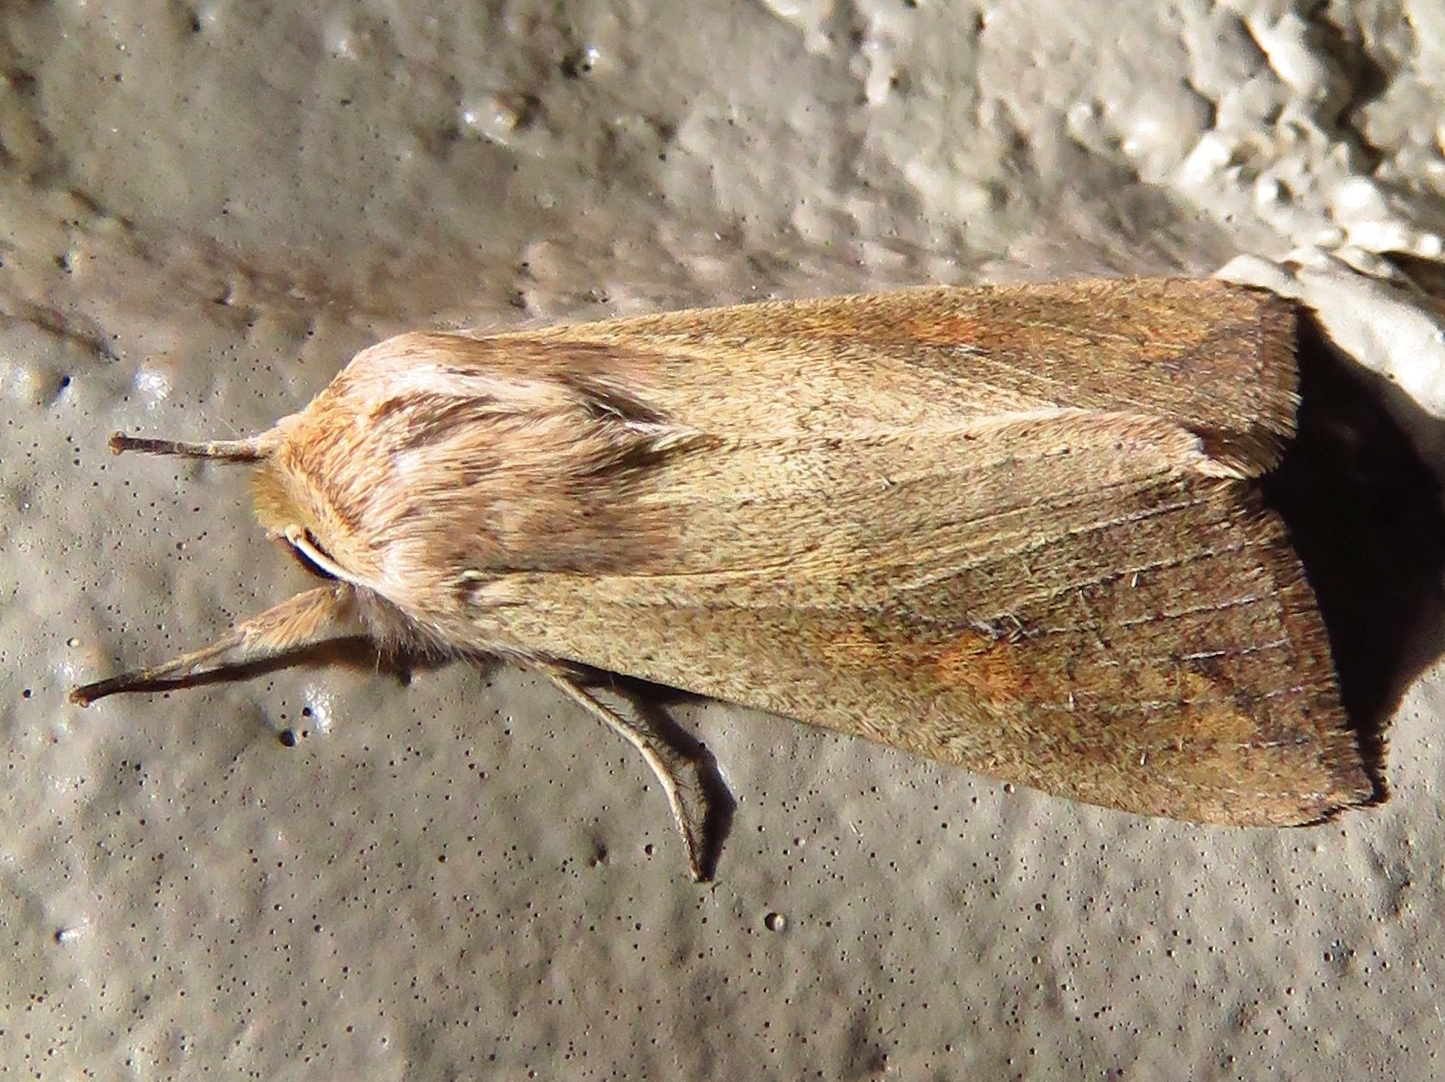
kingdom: Animalia
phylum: Arthropoda
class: Insecta
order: Lepidoptera
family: Noctuidae
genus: Mythimna
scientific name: Mythimna unipuncta
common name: White-speck
